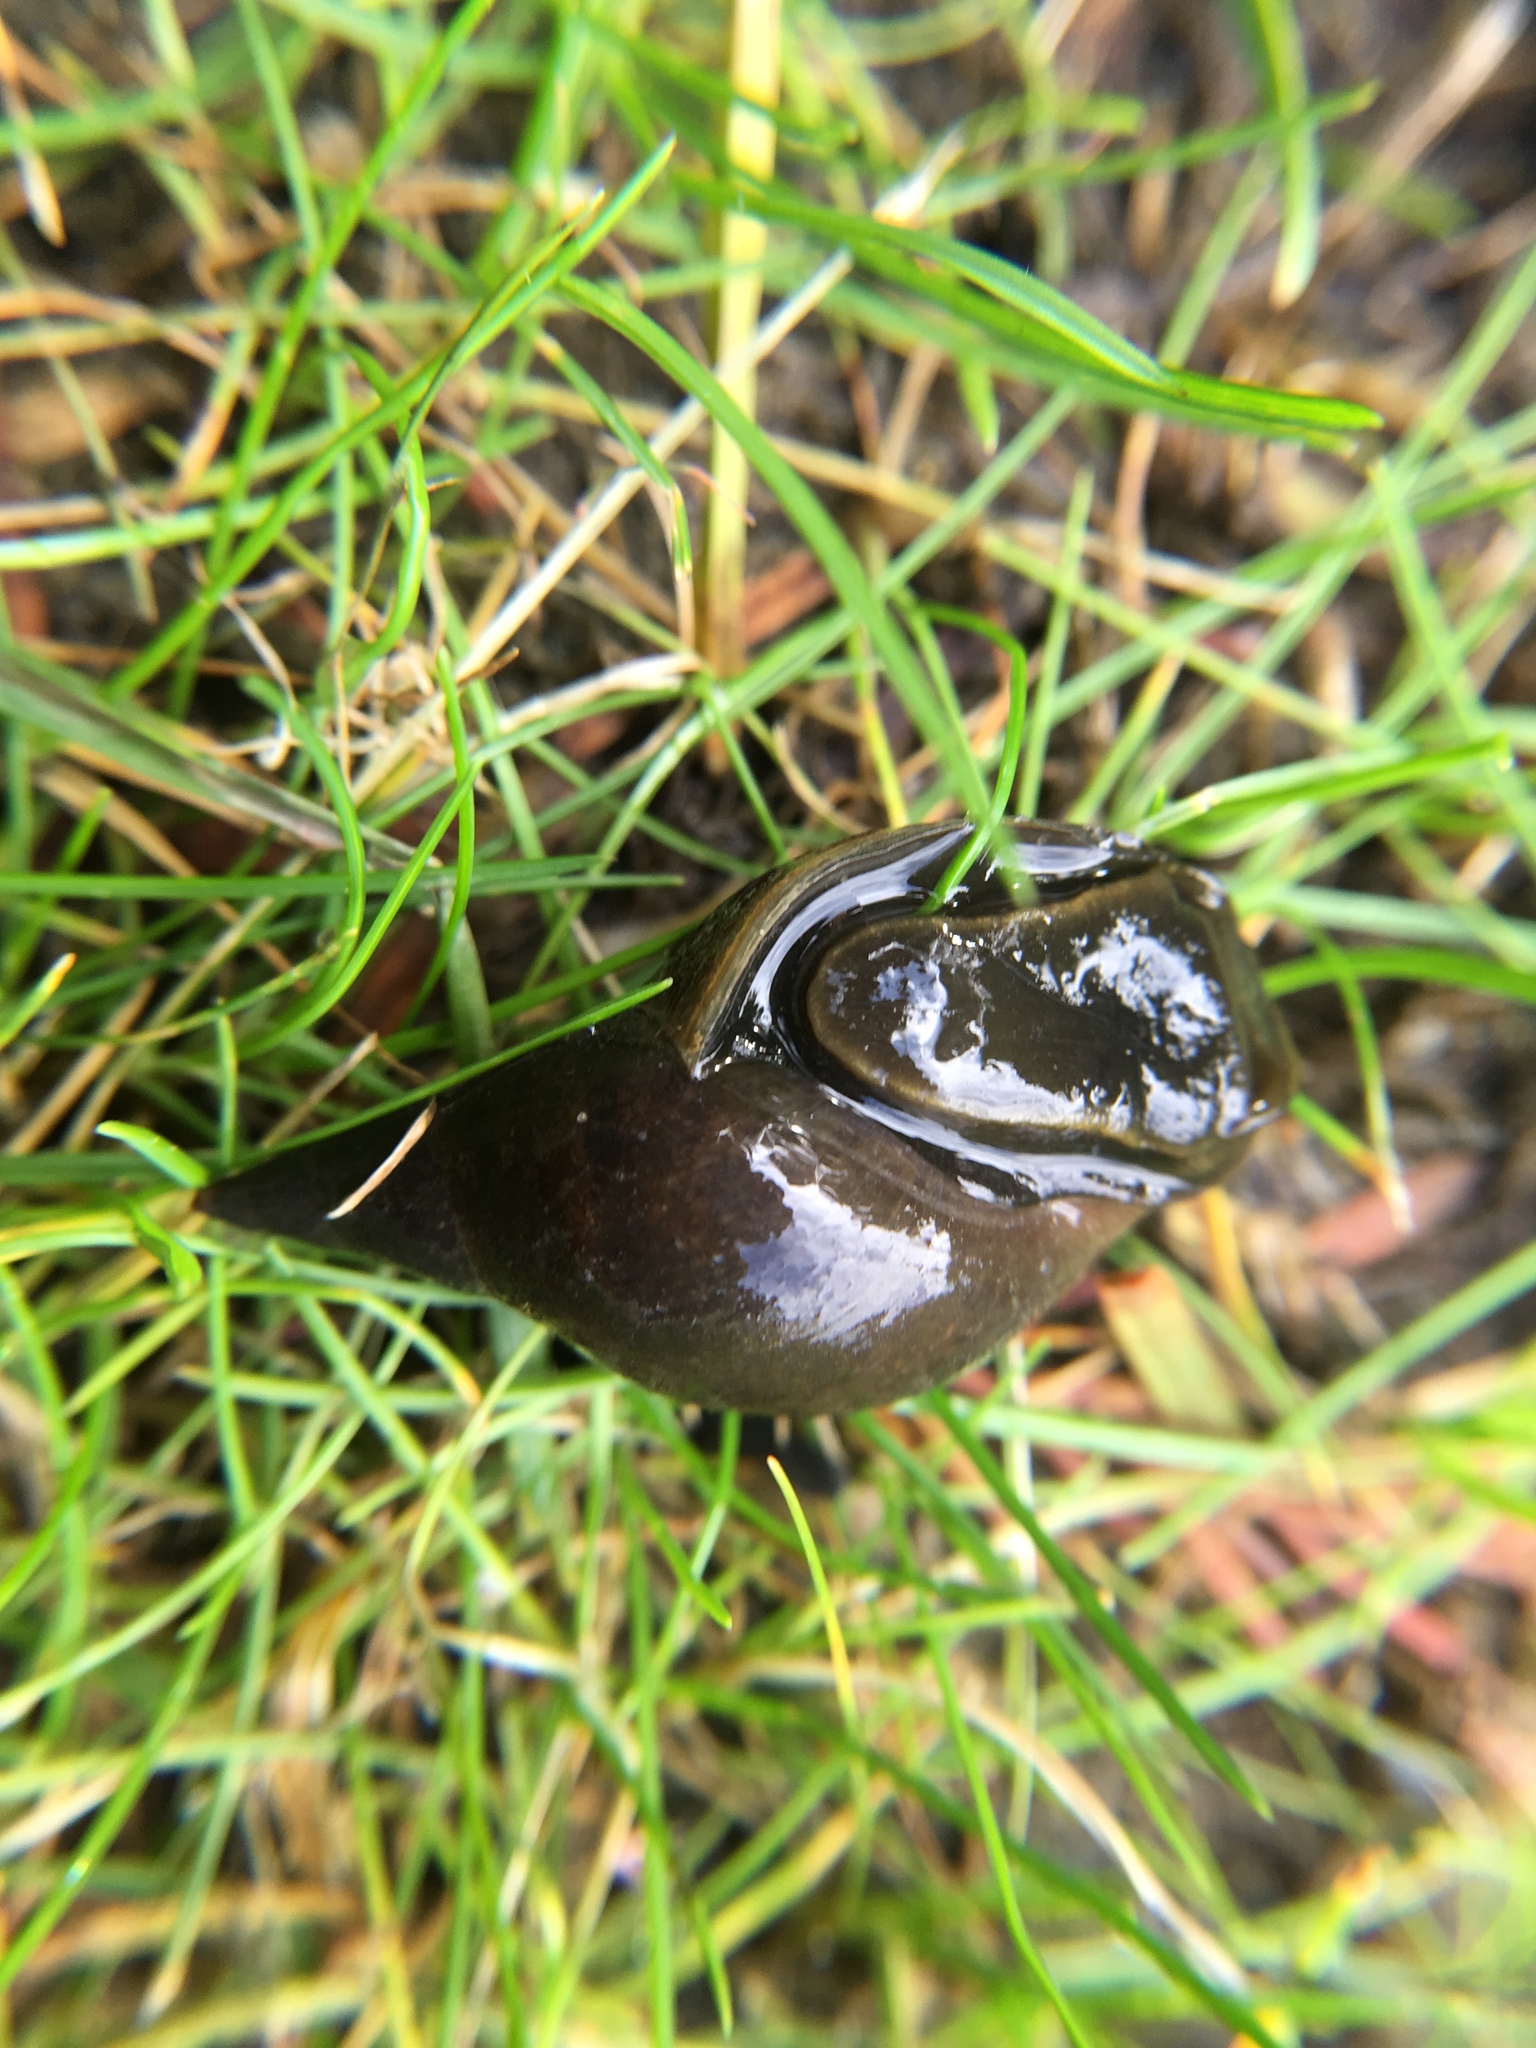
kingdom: Animalia
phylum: Mollusca
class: Gastropoda
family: Lymnaeidae
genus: Lymnaea
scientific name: Lymnaea stagnalis
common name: Great pond snail
